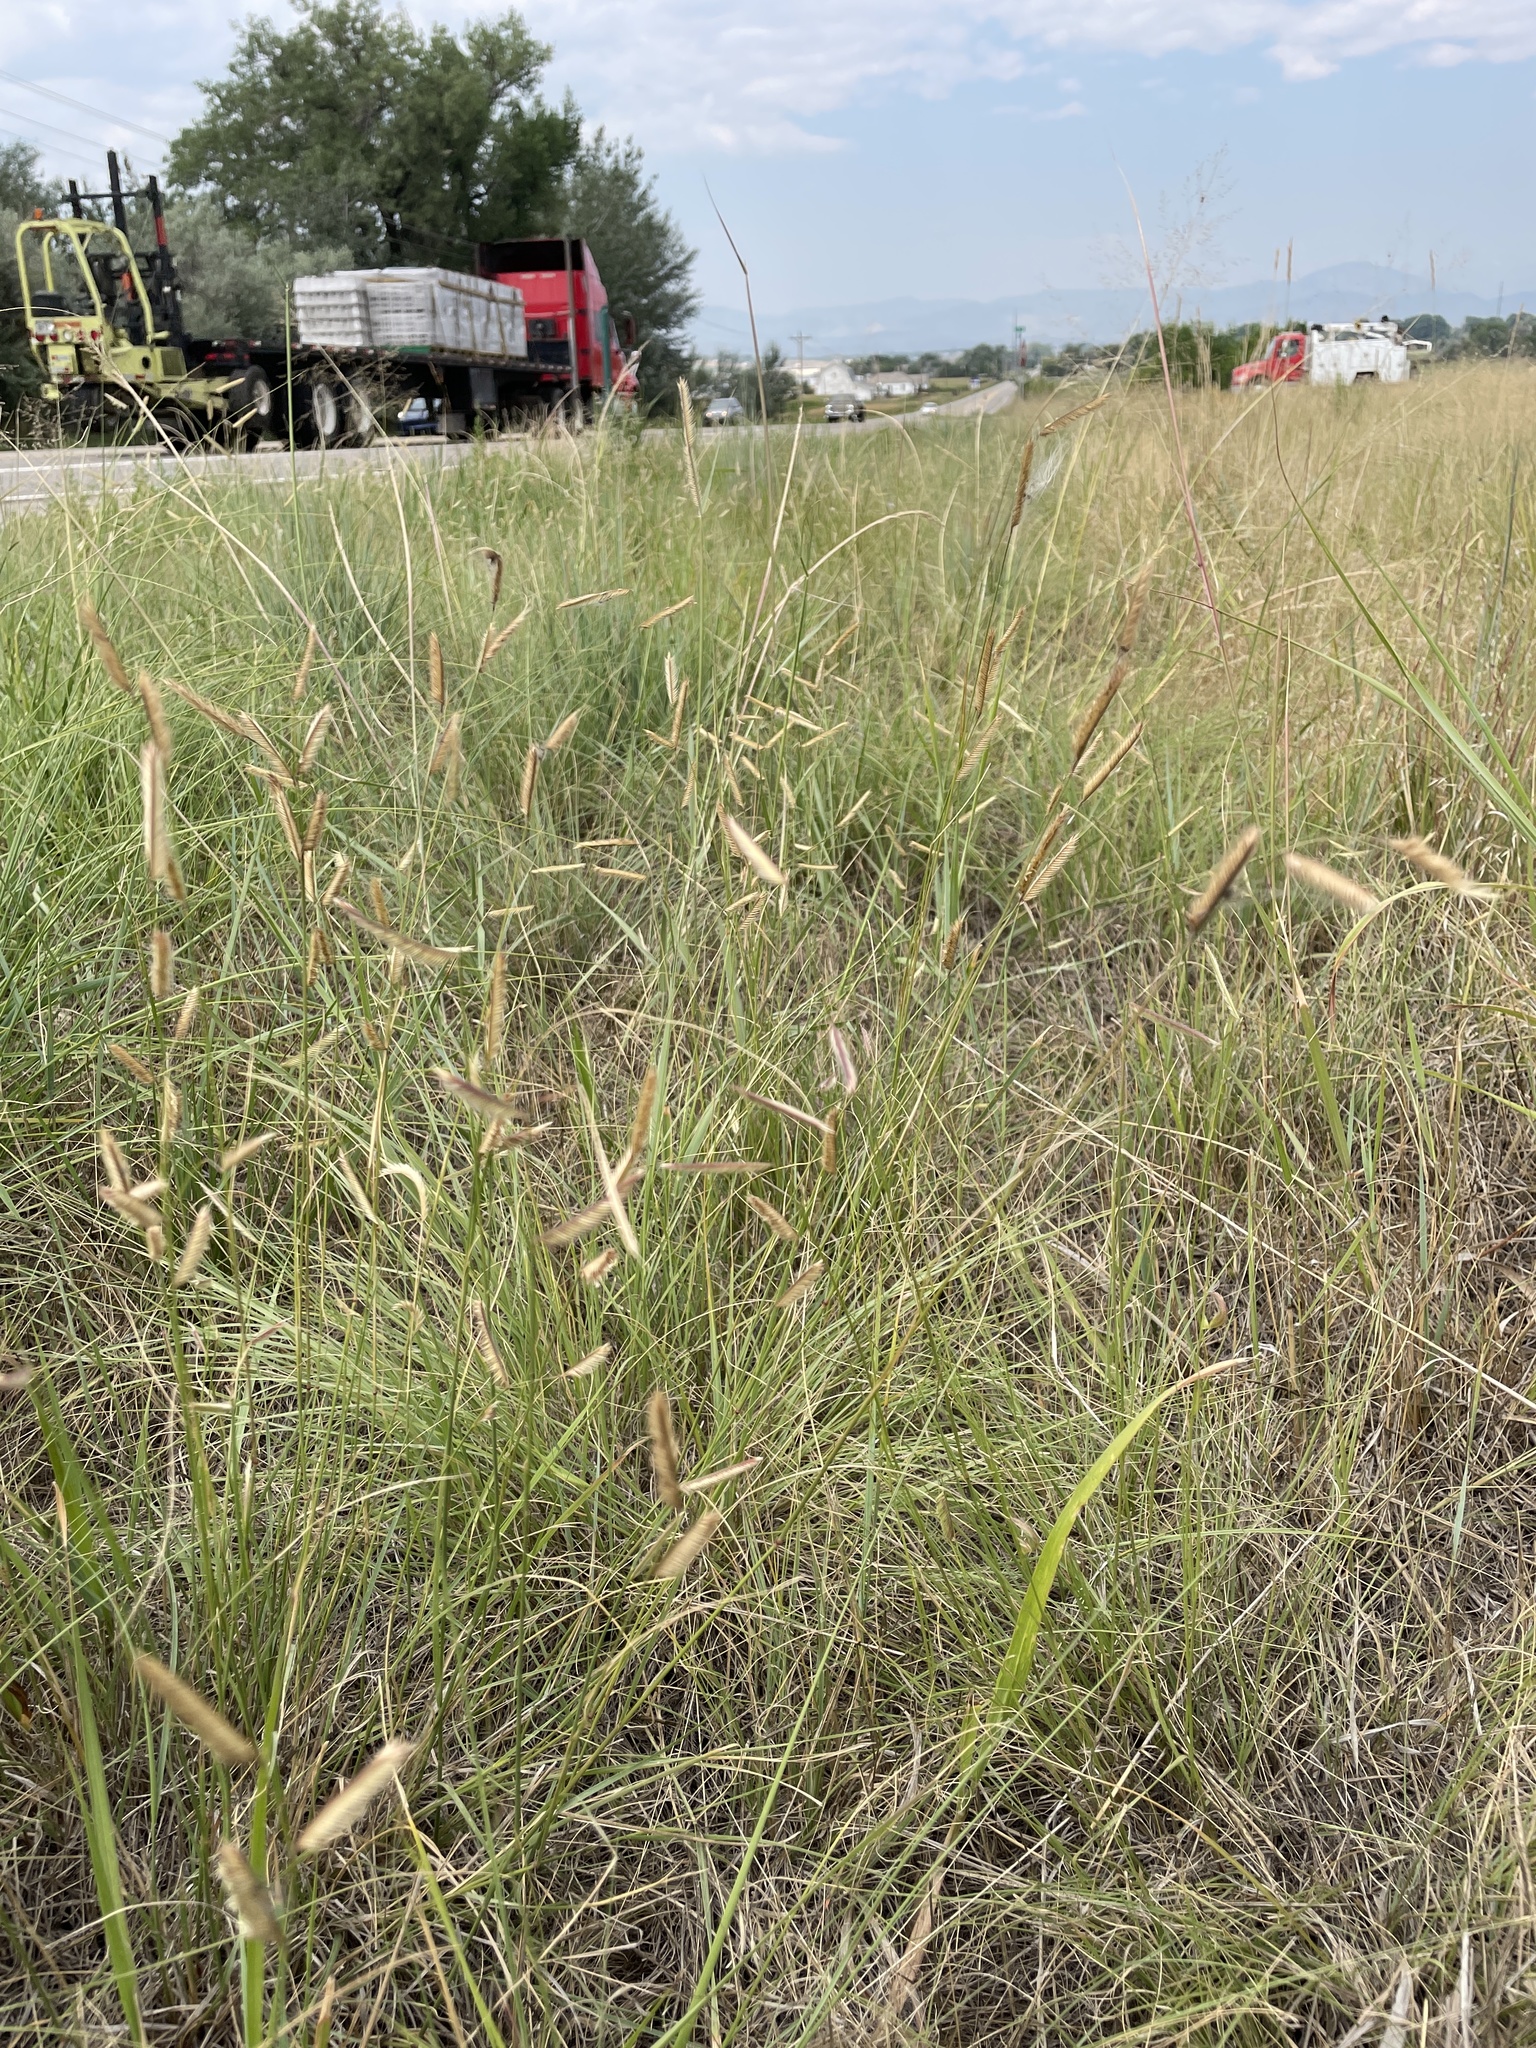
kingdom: Plantae
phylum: Tracheophyta
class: Liliopsida
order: Poales
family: Poaceae
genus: Bouteloua
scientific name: Bouteloua gracilis
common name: Blue grama
